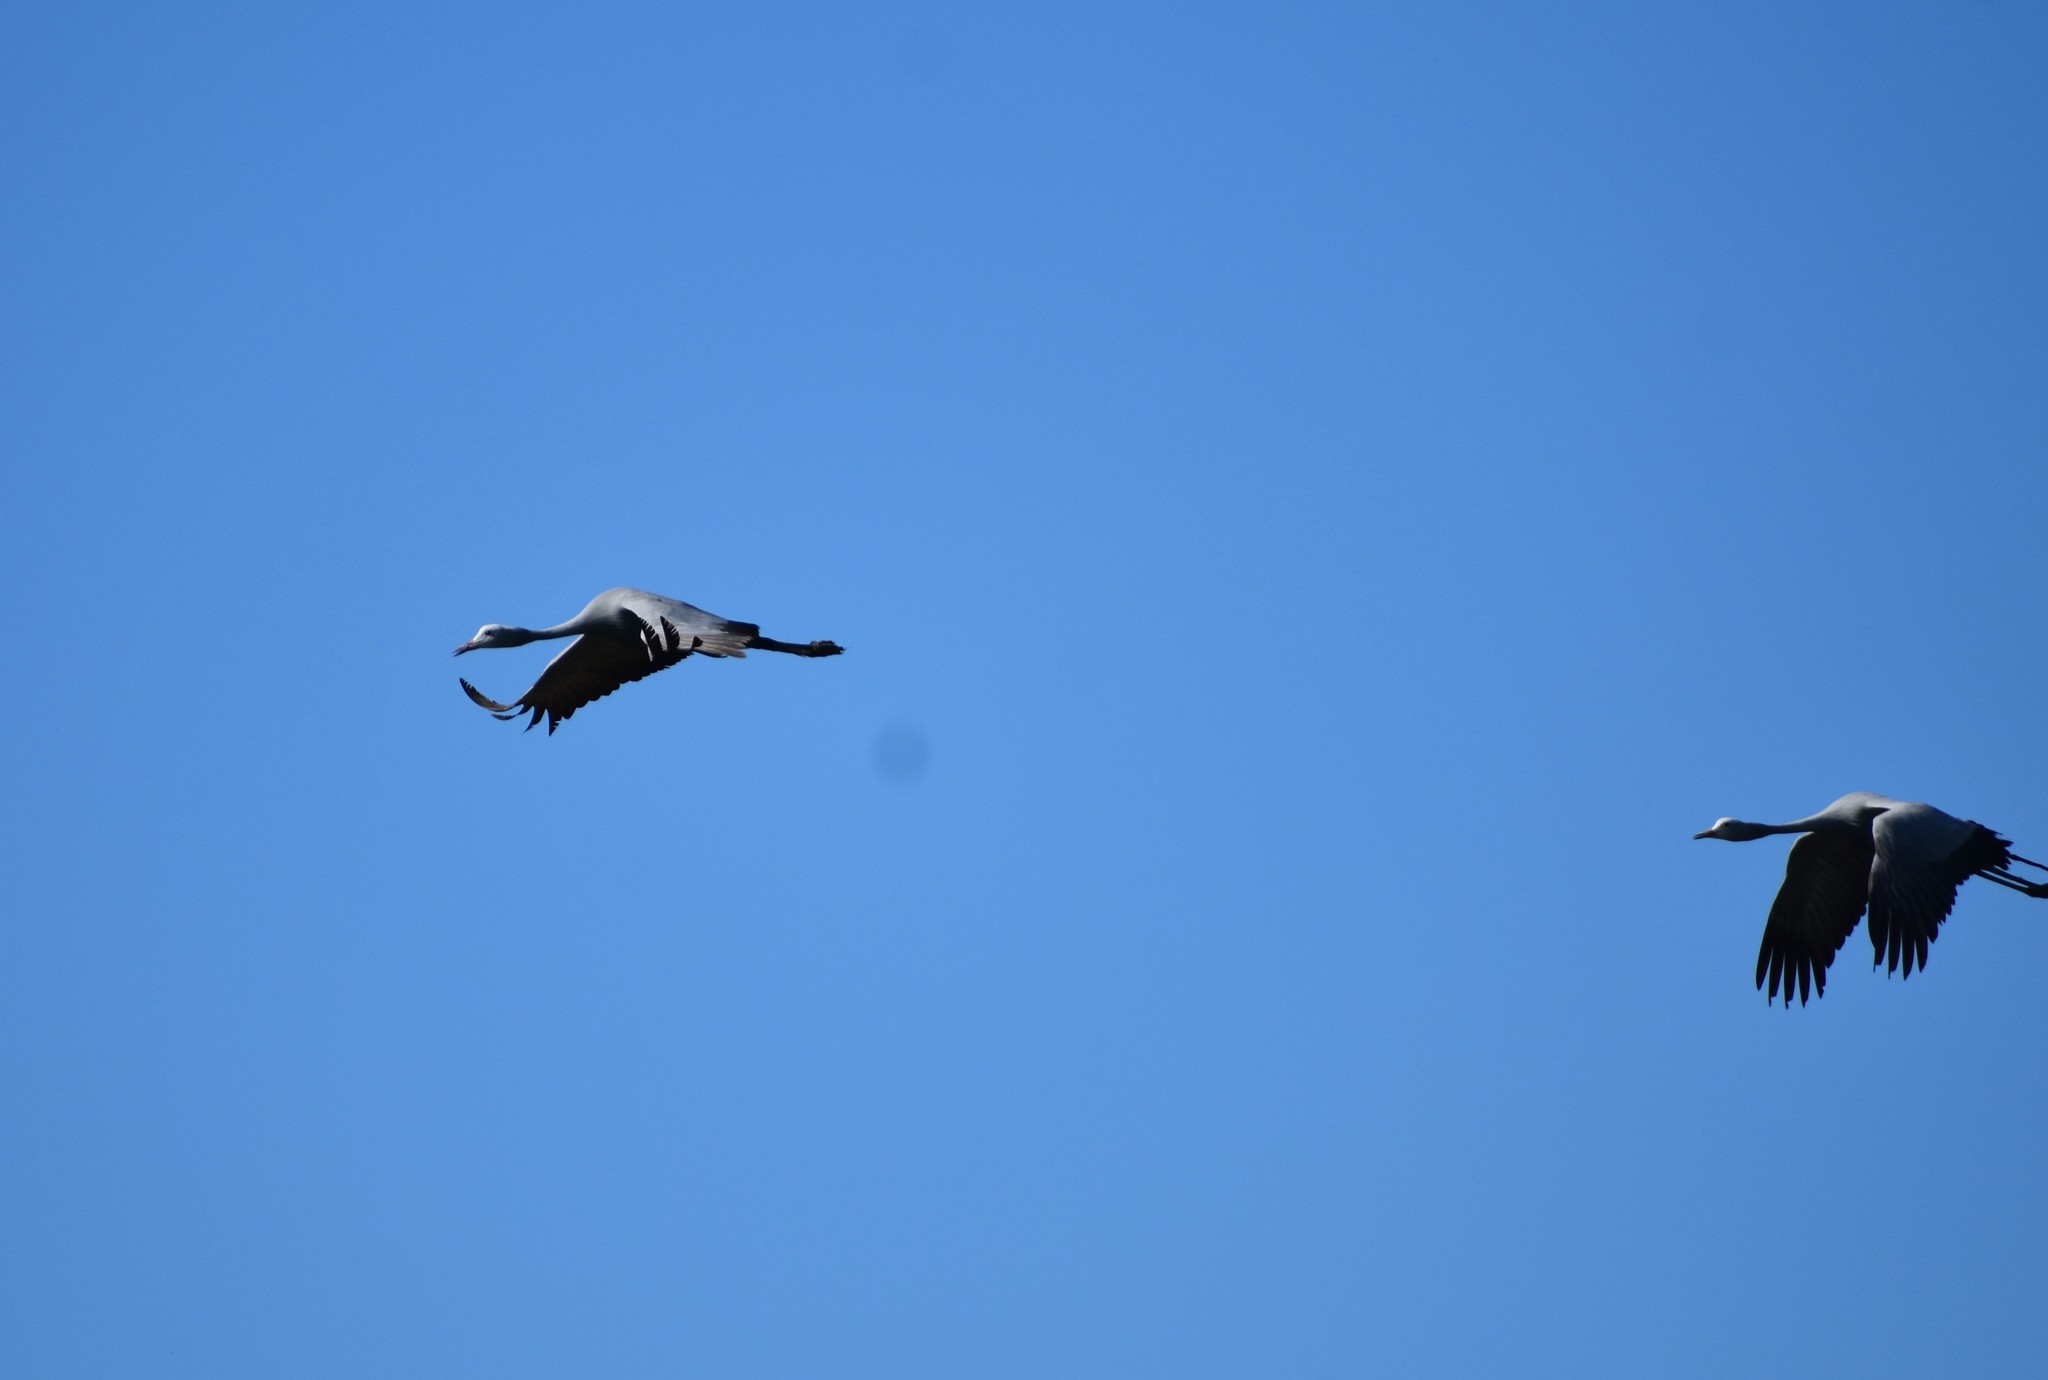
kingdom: Animalia
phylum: Chordata
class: Aves
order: Gruiformes
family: Gruidae
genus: Anthropoides
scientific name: Anthropoides paradiseus
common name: Blue crane
